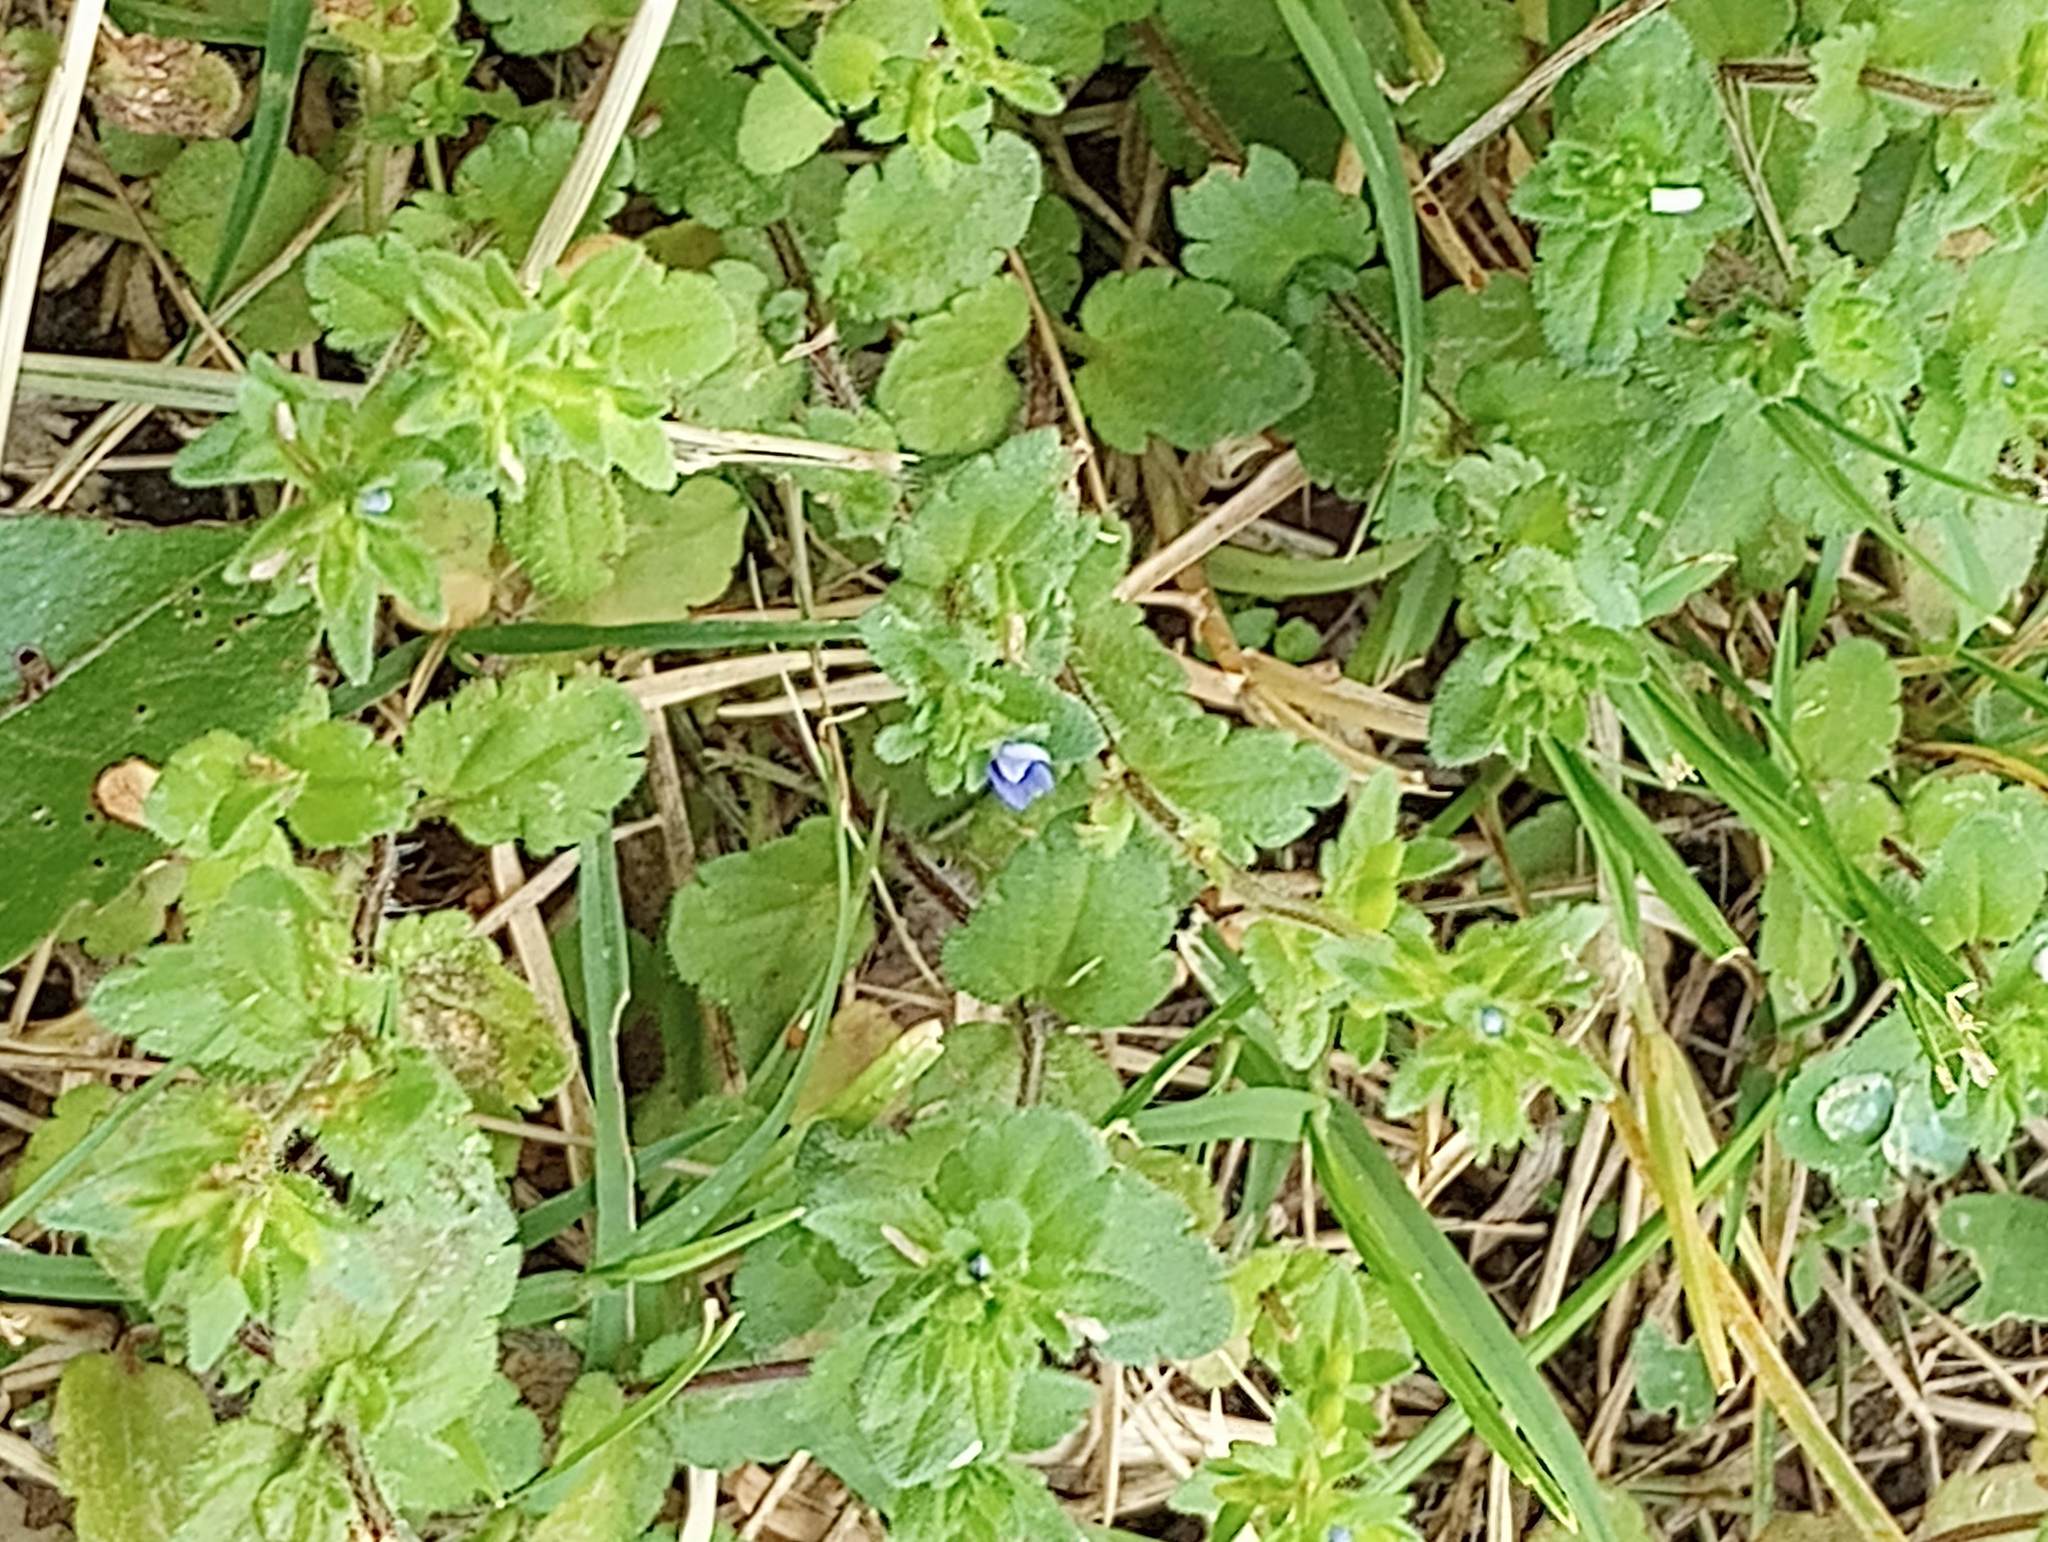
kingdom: Plantae
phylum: Tracheophyta
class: Magnoliopsida
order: Lamiales
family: Plantaginaceae
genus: Veronica
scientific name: Veronica arvensis
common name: Corn speedwell
